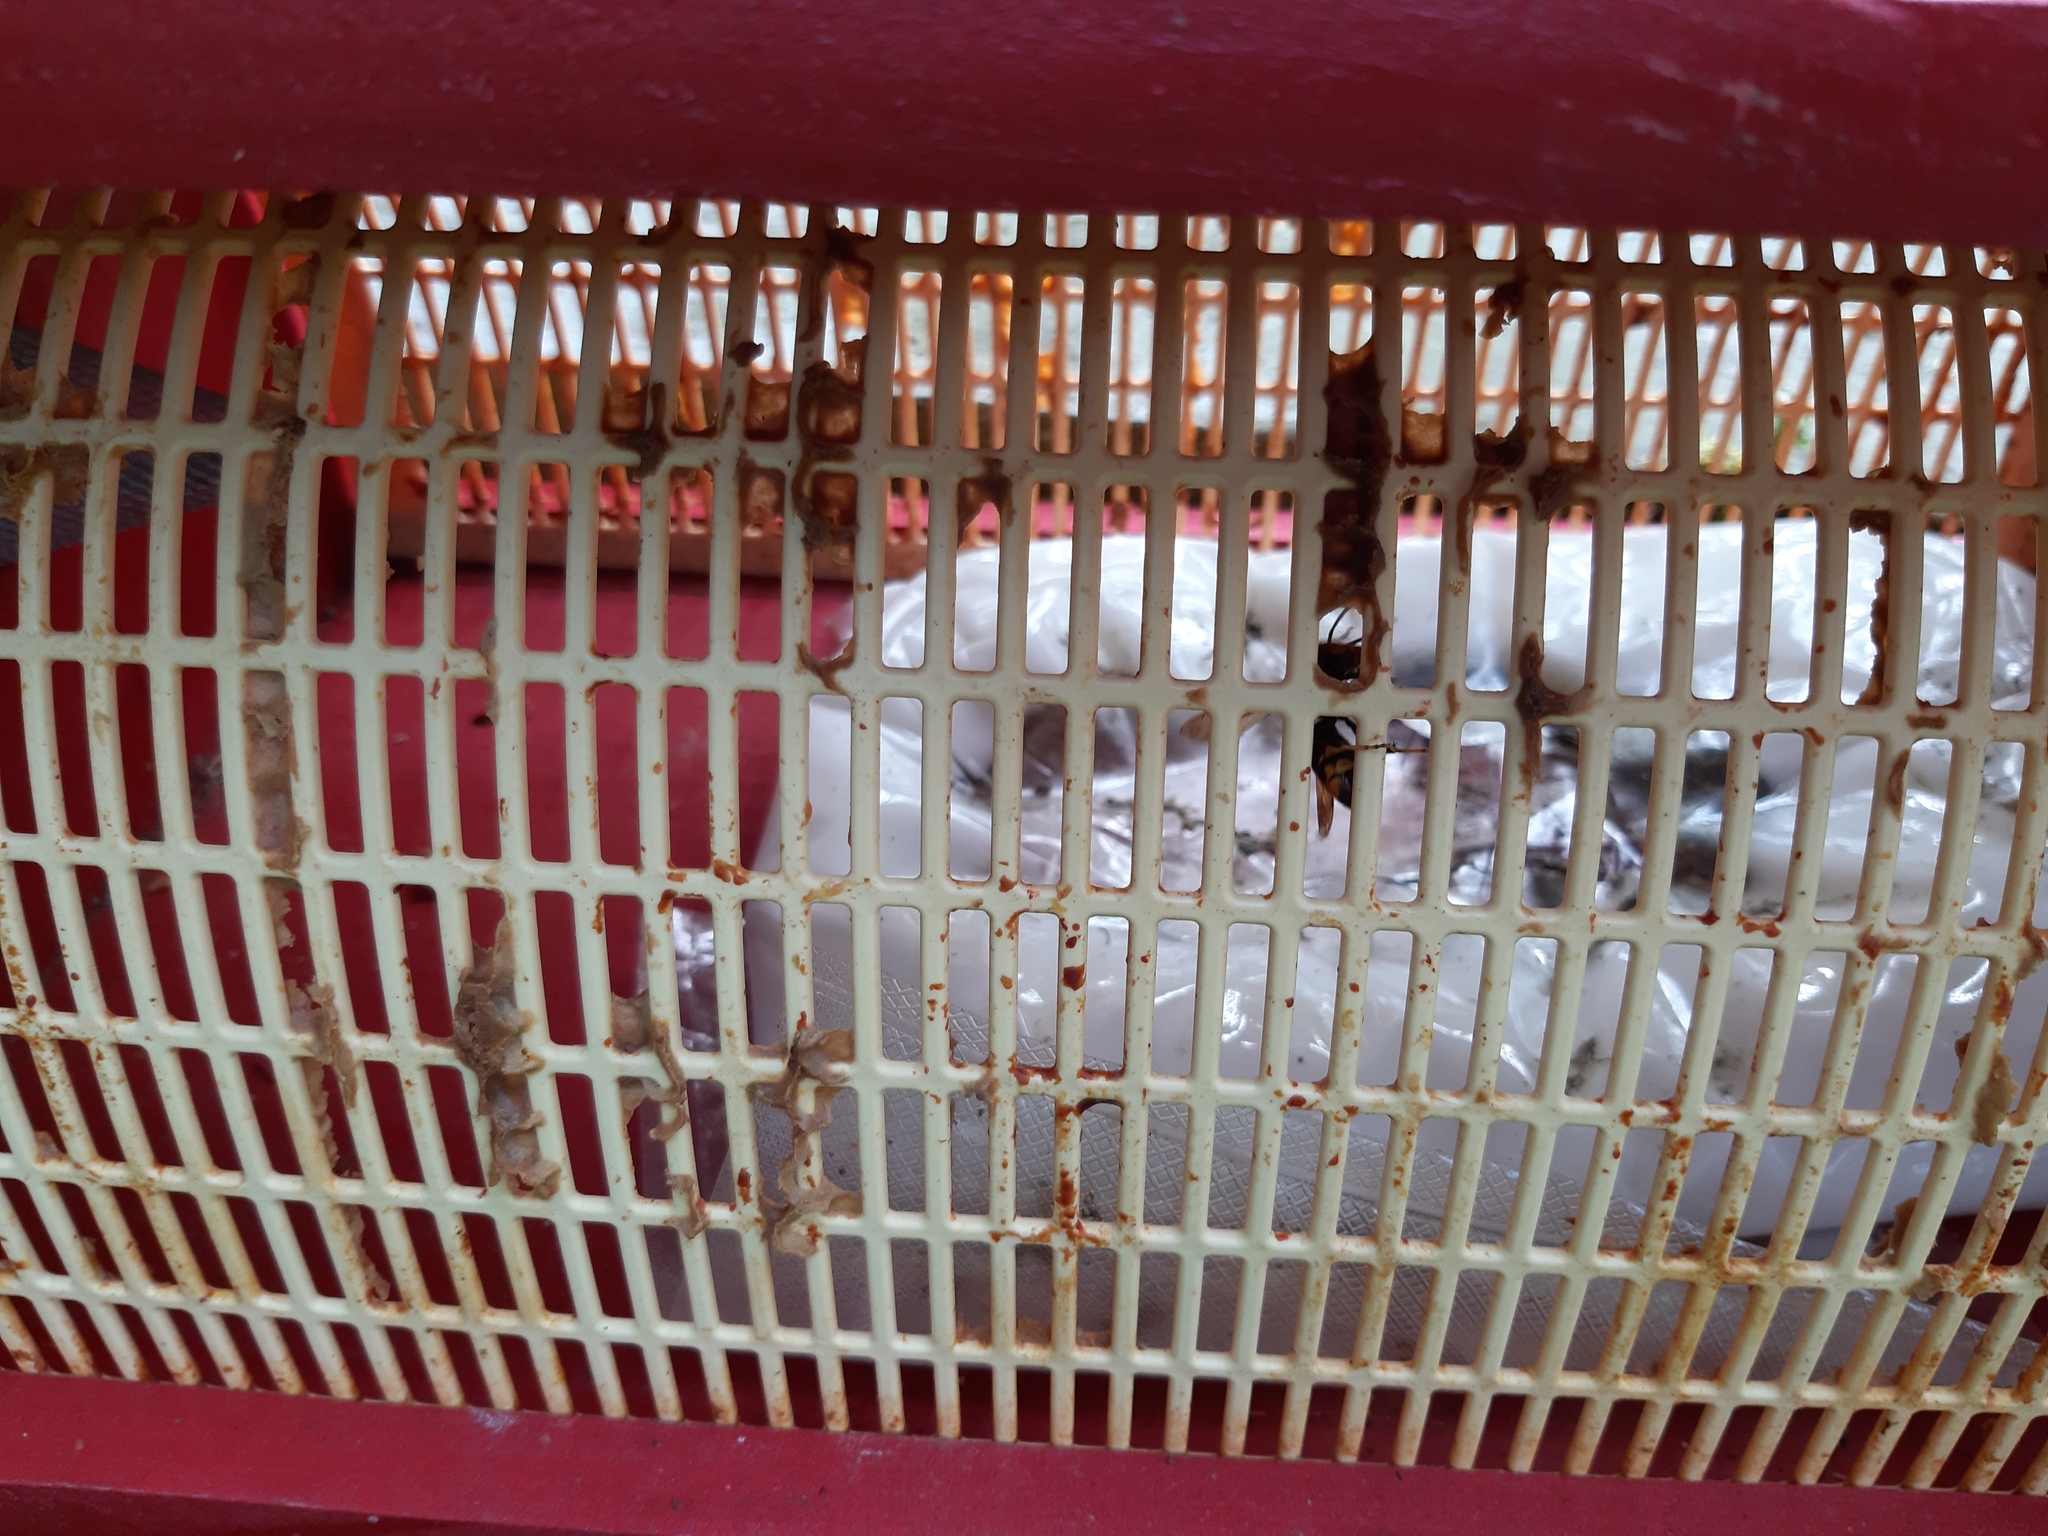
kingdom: Animalia
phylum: Arthropoda
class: Insecta
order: Hymenoptera
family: Vespidae
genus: Vespa
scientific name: Vespa velutina
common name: Asian hornet
